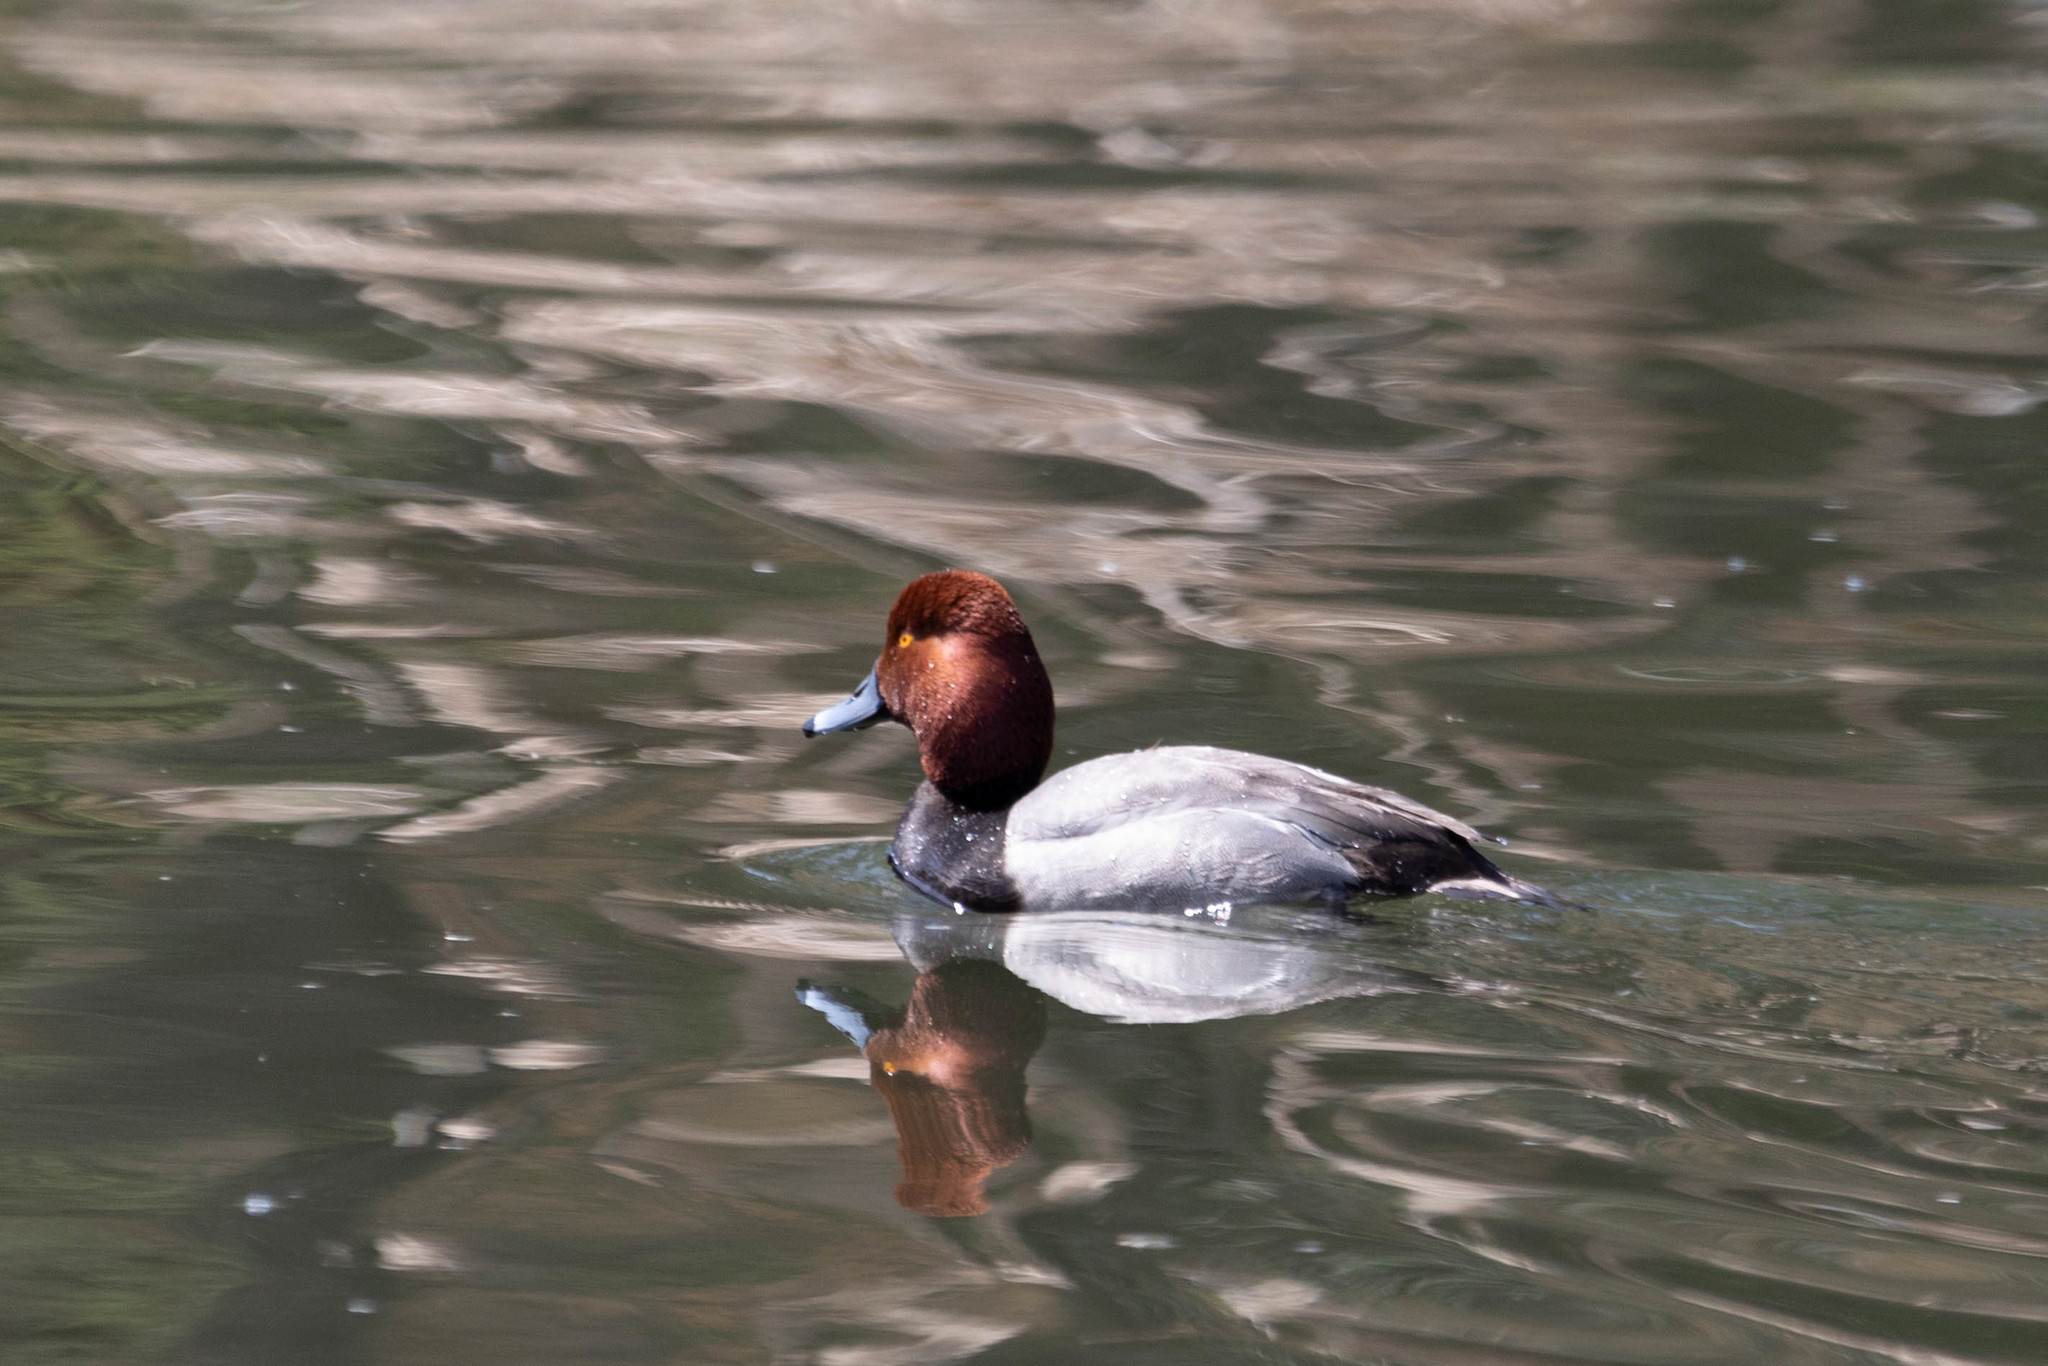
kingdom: Animalia
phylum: Chordata
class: Aves
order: Anseriformes
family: Anatidae
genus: Aythya
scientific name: Aythya americana
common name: Redhead
